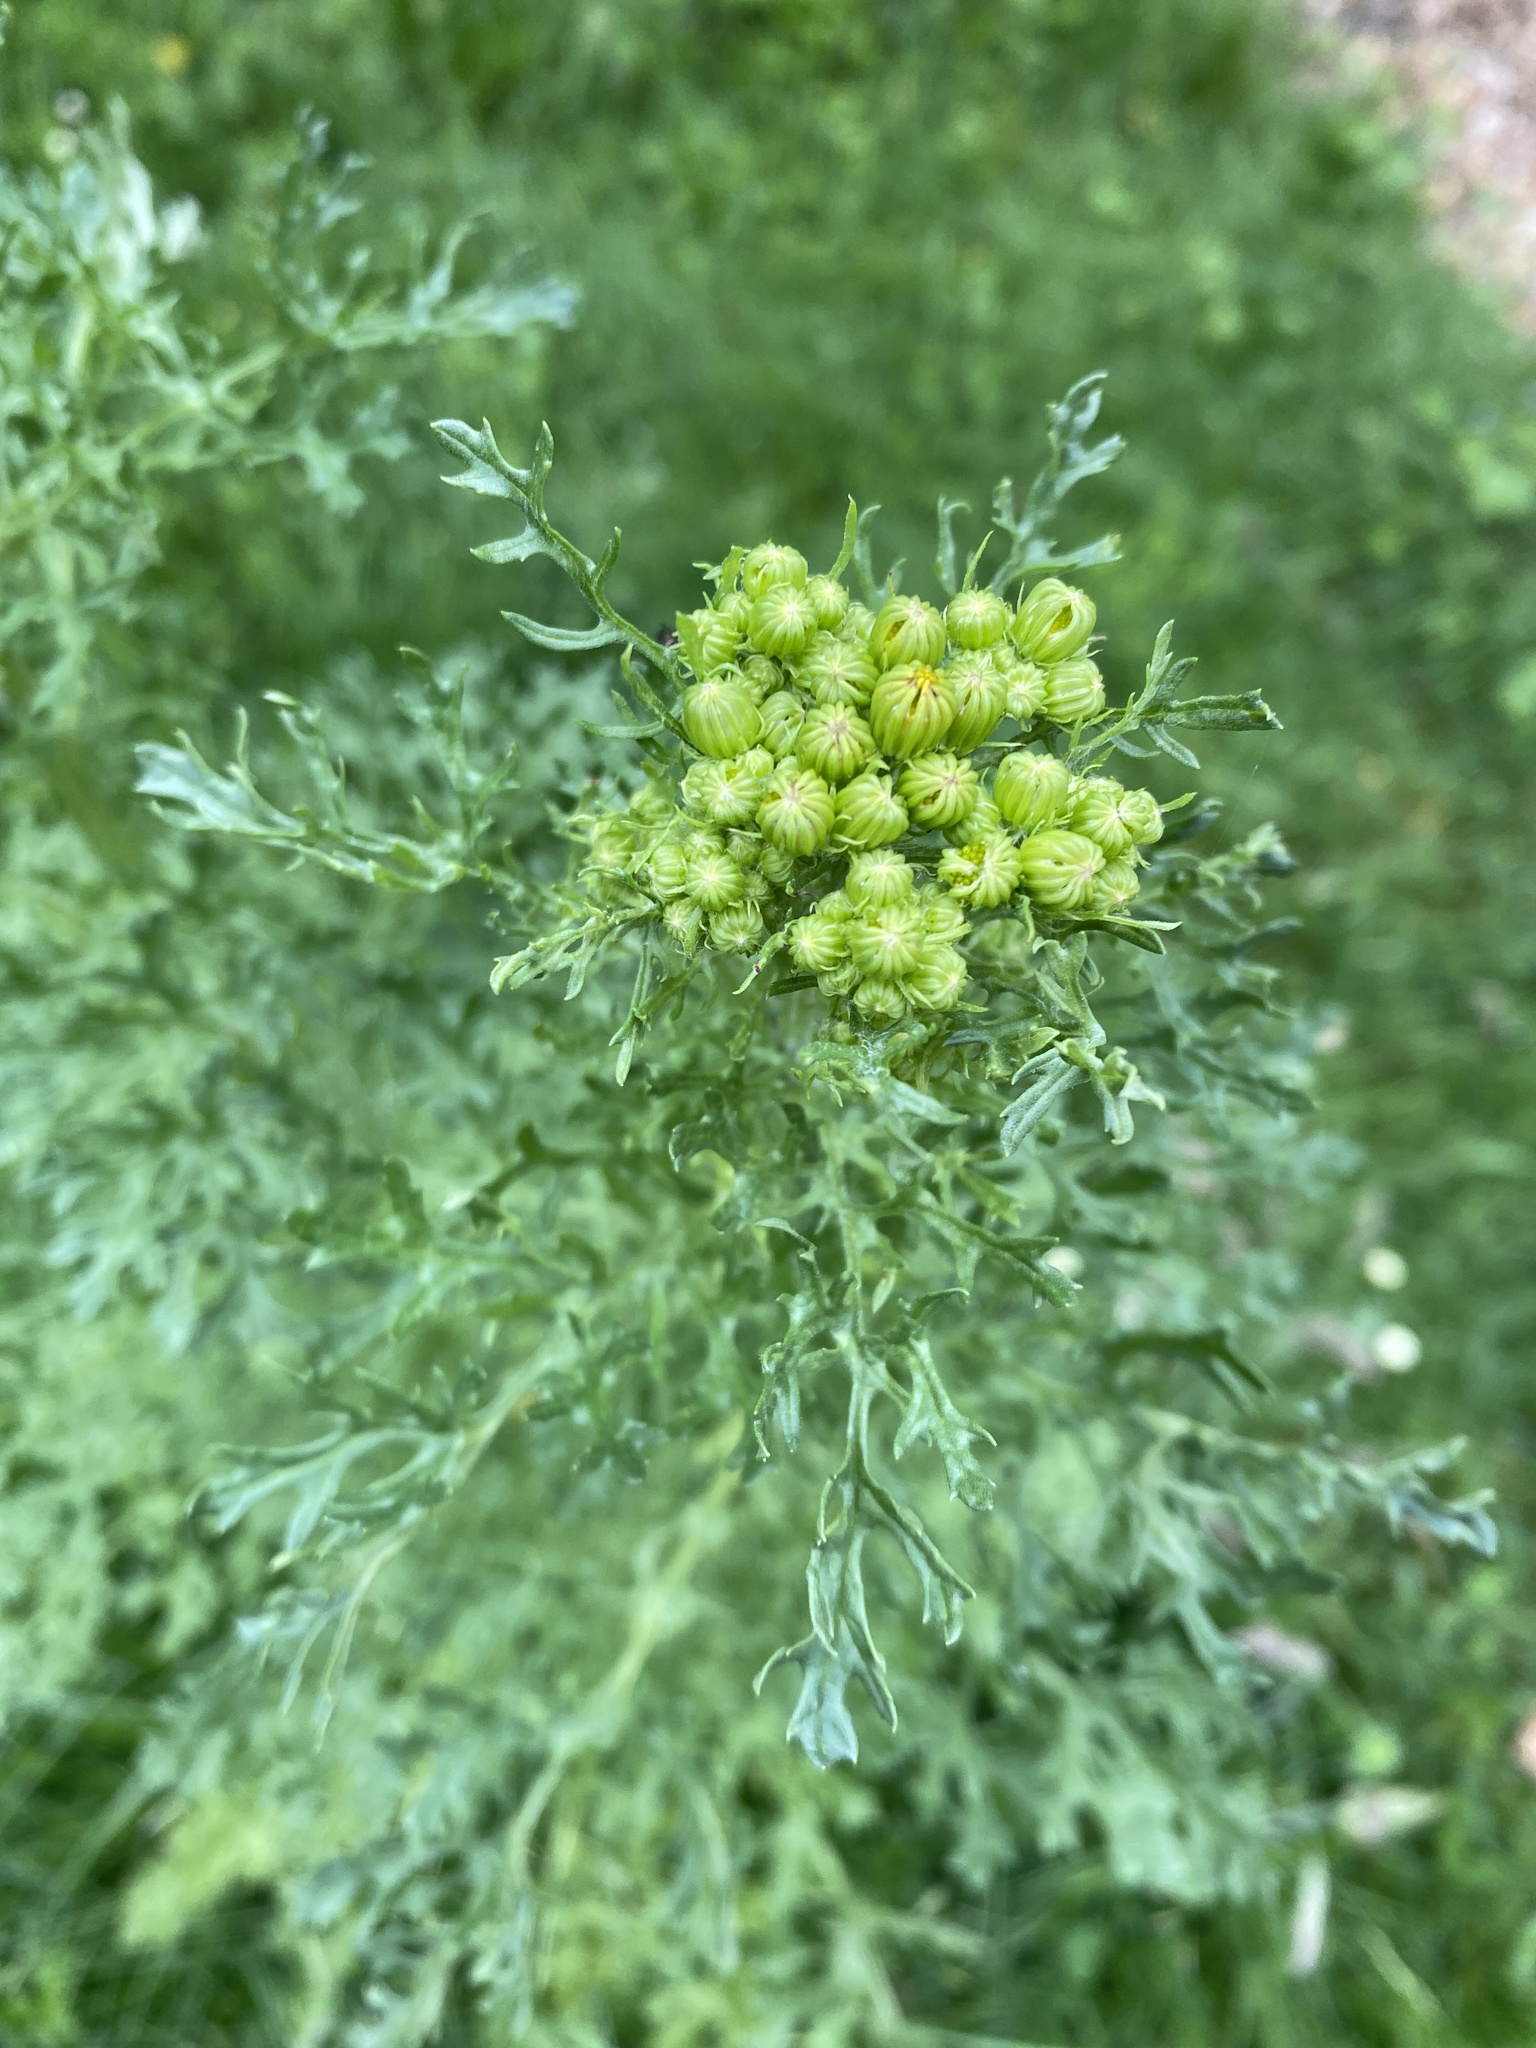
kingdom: Plantae
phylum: Tracheophyta
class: Magnoliopsida
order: Asterales
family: Asteraceae
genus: Jacobaea
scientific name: Jacobaea erucifolia
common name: Hoary ragwort
